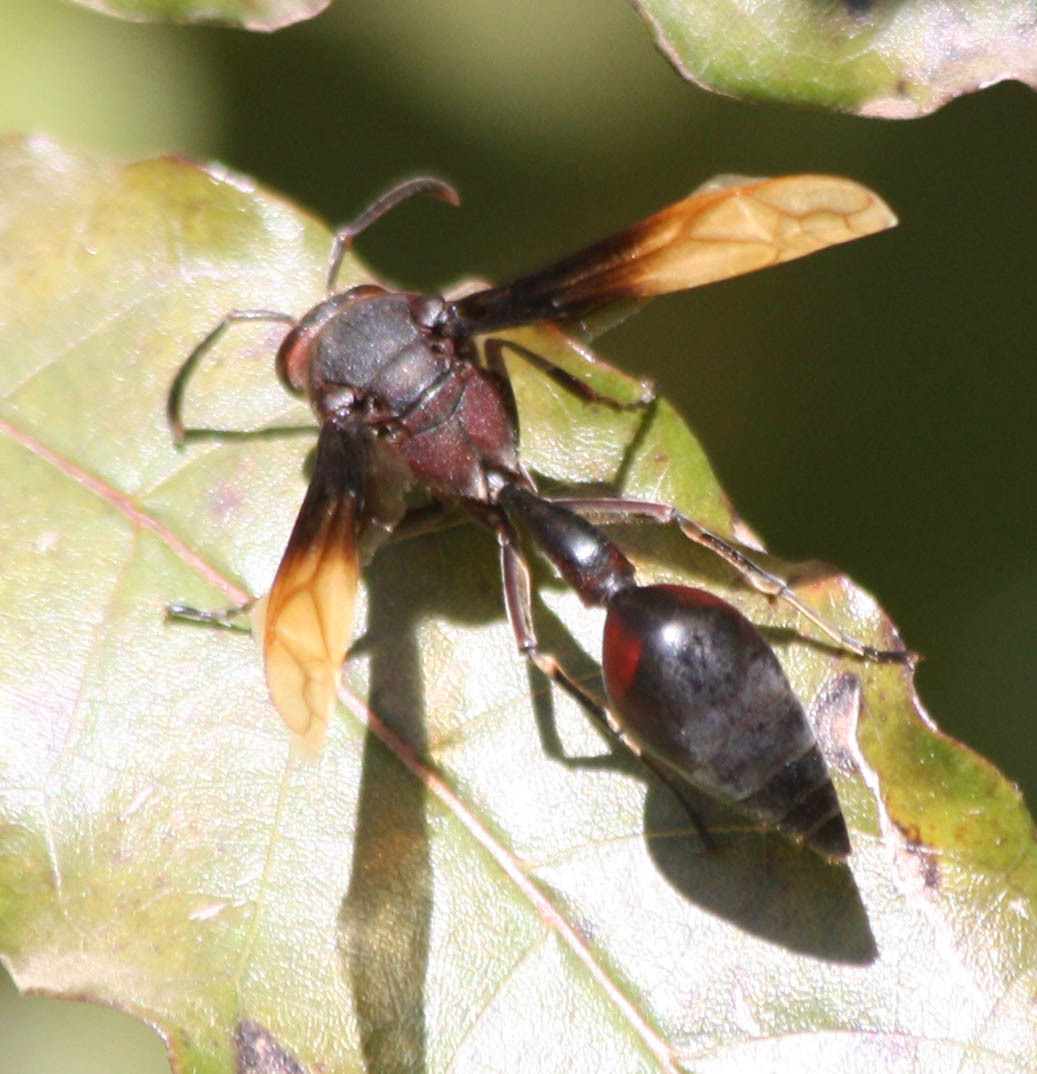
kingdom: Animalia
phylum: Arthropoda
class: Insecta
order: Hymenoptera
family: Eumenidae
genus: Delta
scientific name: Delta regina
